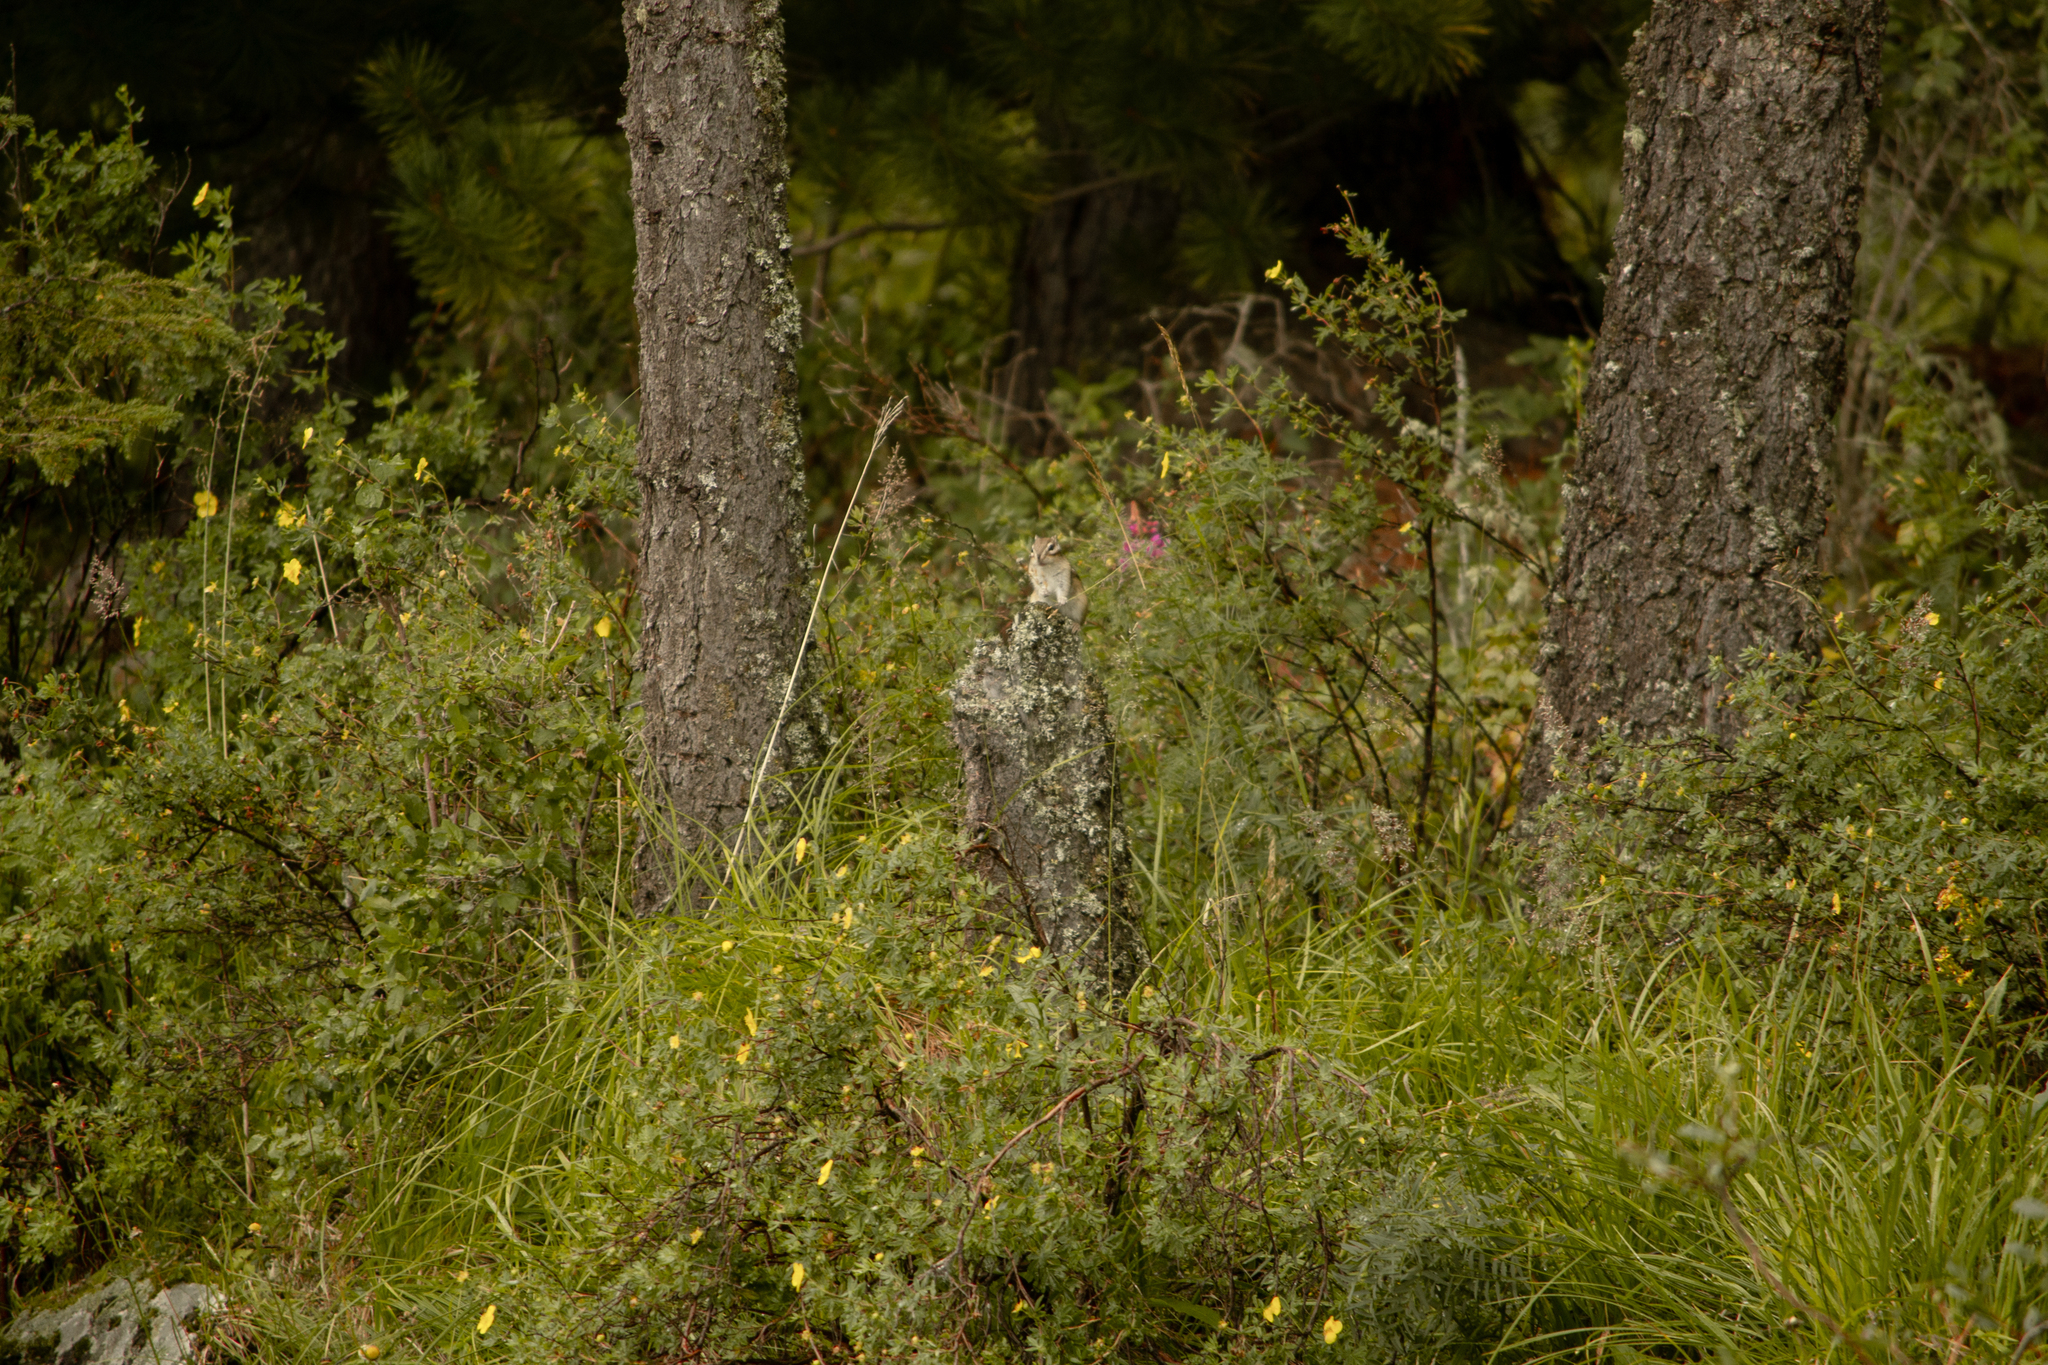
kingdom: Animalia
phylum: Chordata
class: Mammalia
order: Rodentia
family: Sciuridae
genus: Tamias
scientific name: Tamias sibiricus
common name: Siberian chipmunk
